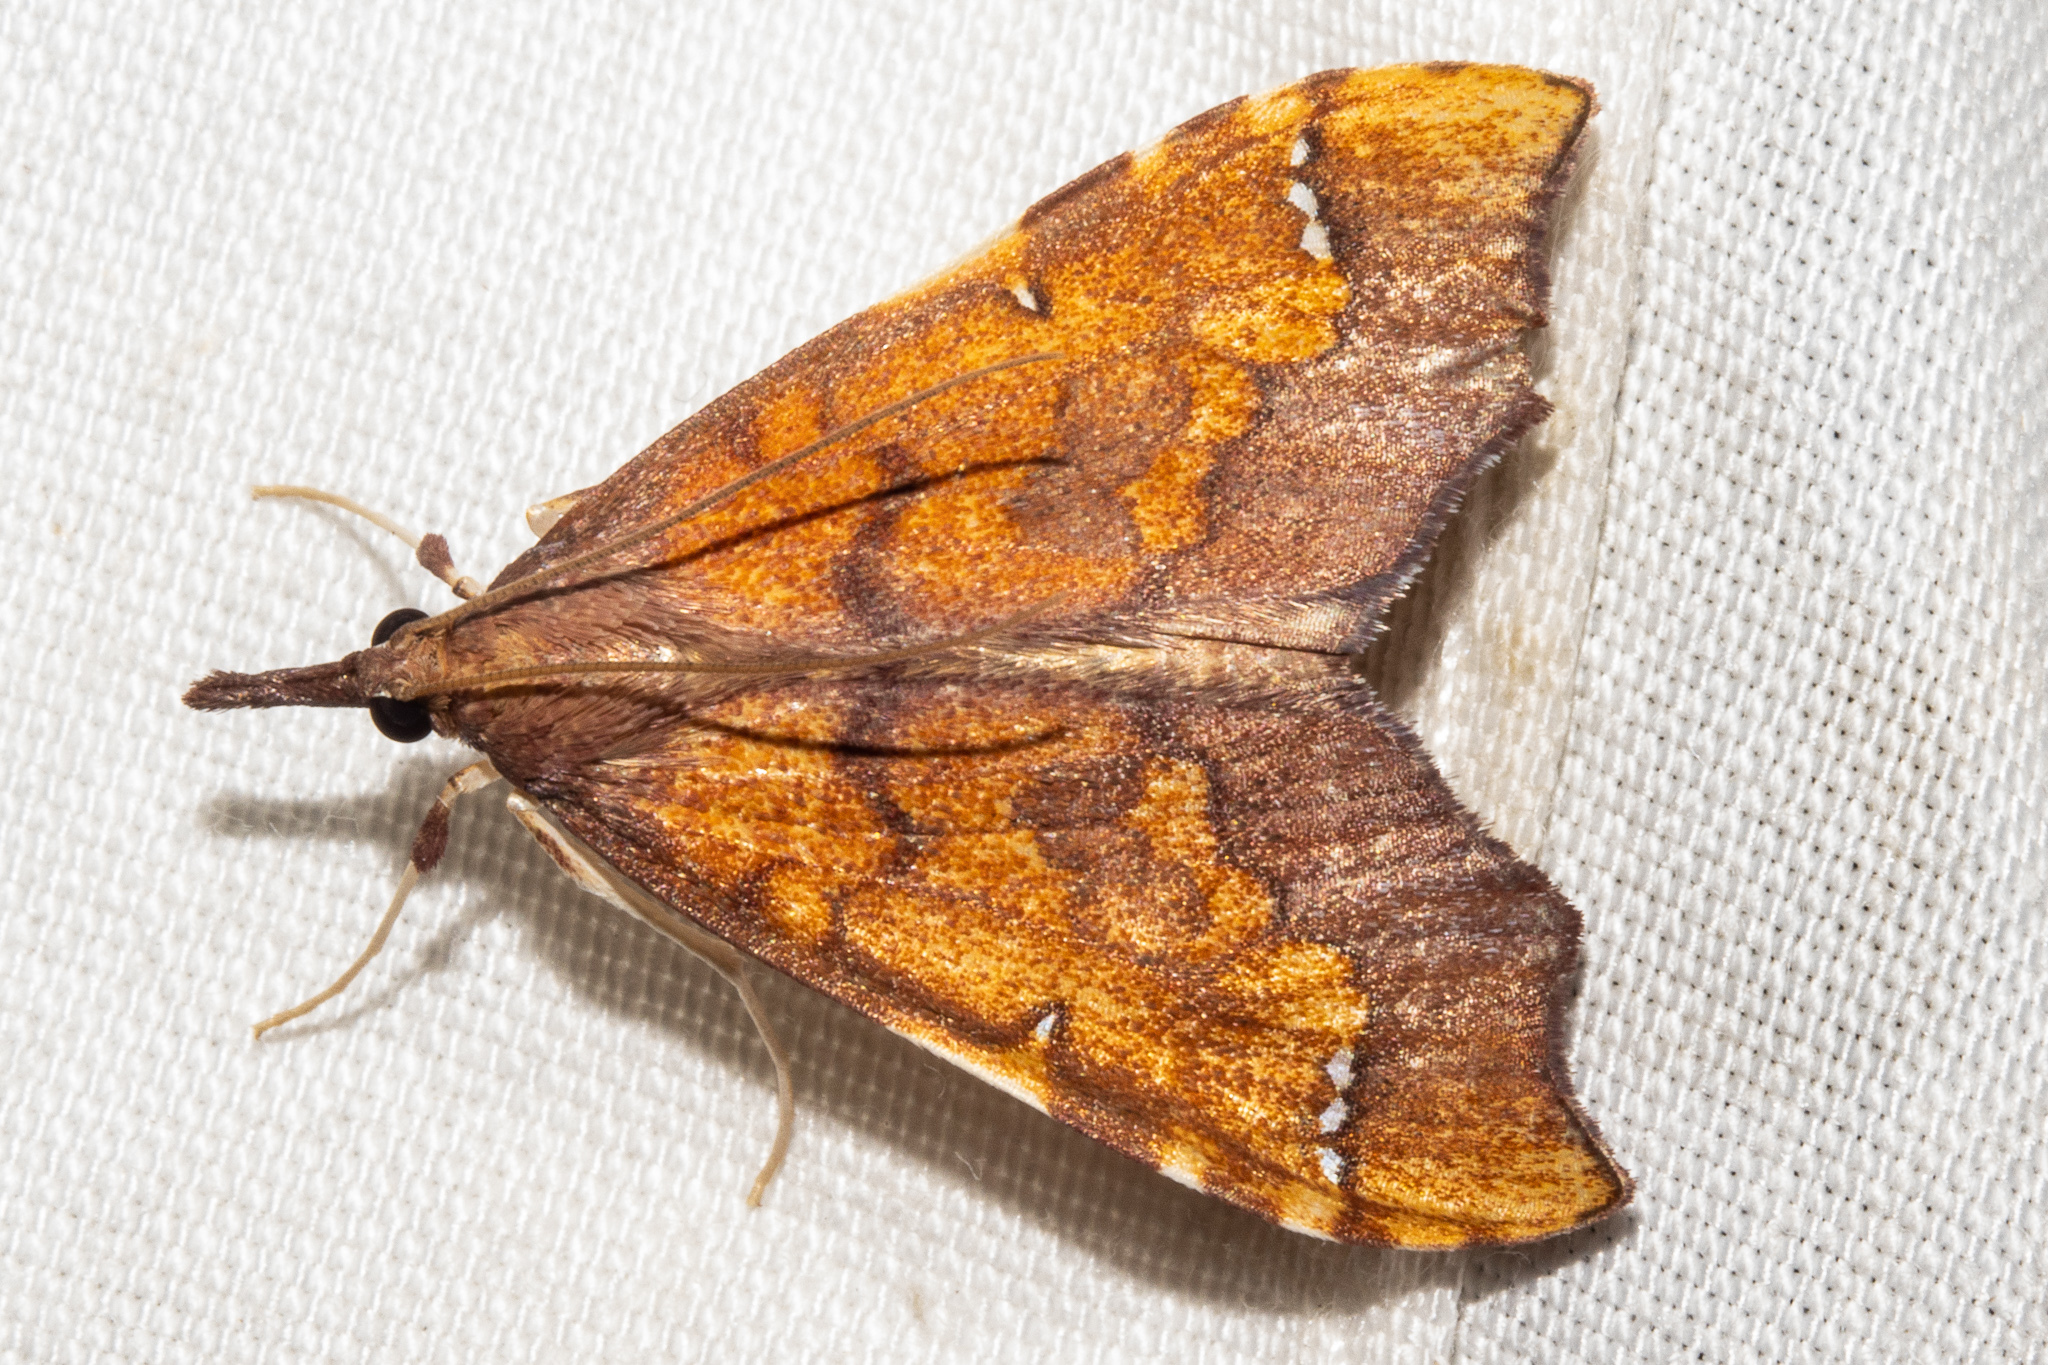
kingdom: Animalia
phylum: Arthropoda
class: Insecta
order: Lepidoptera
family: Crambidae
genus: Deana
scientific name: Deana hybreasalis
